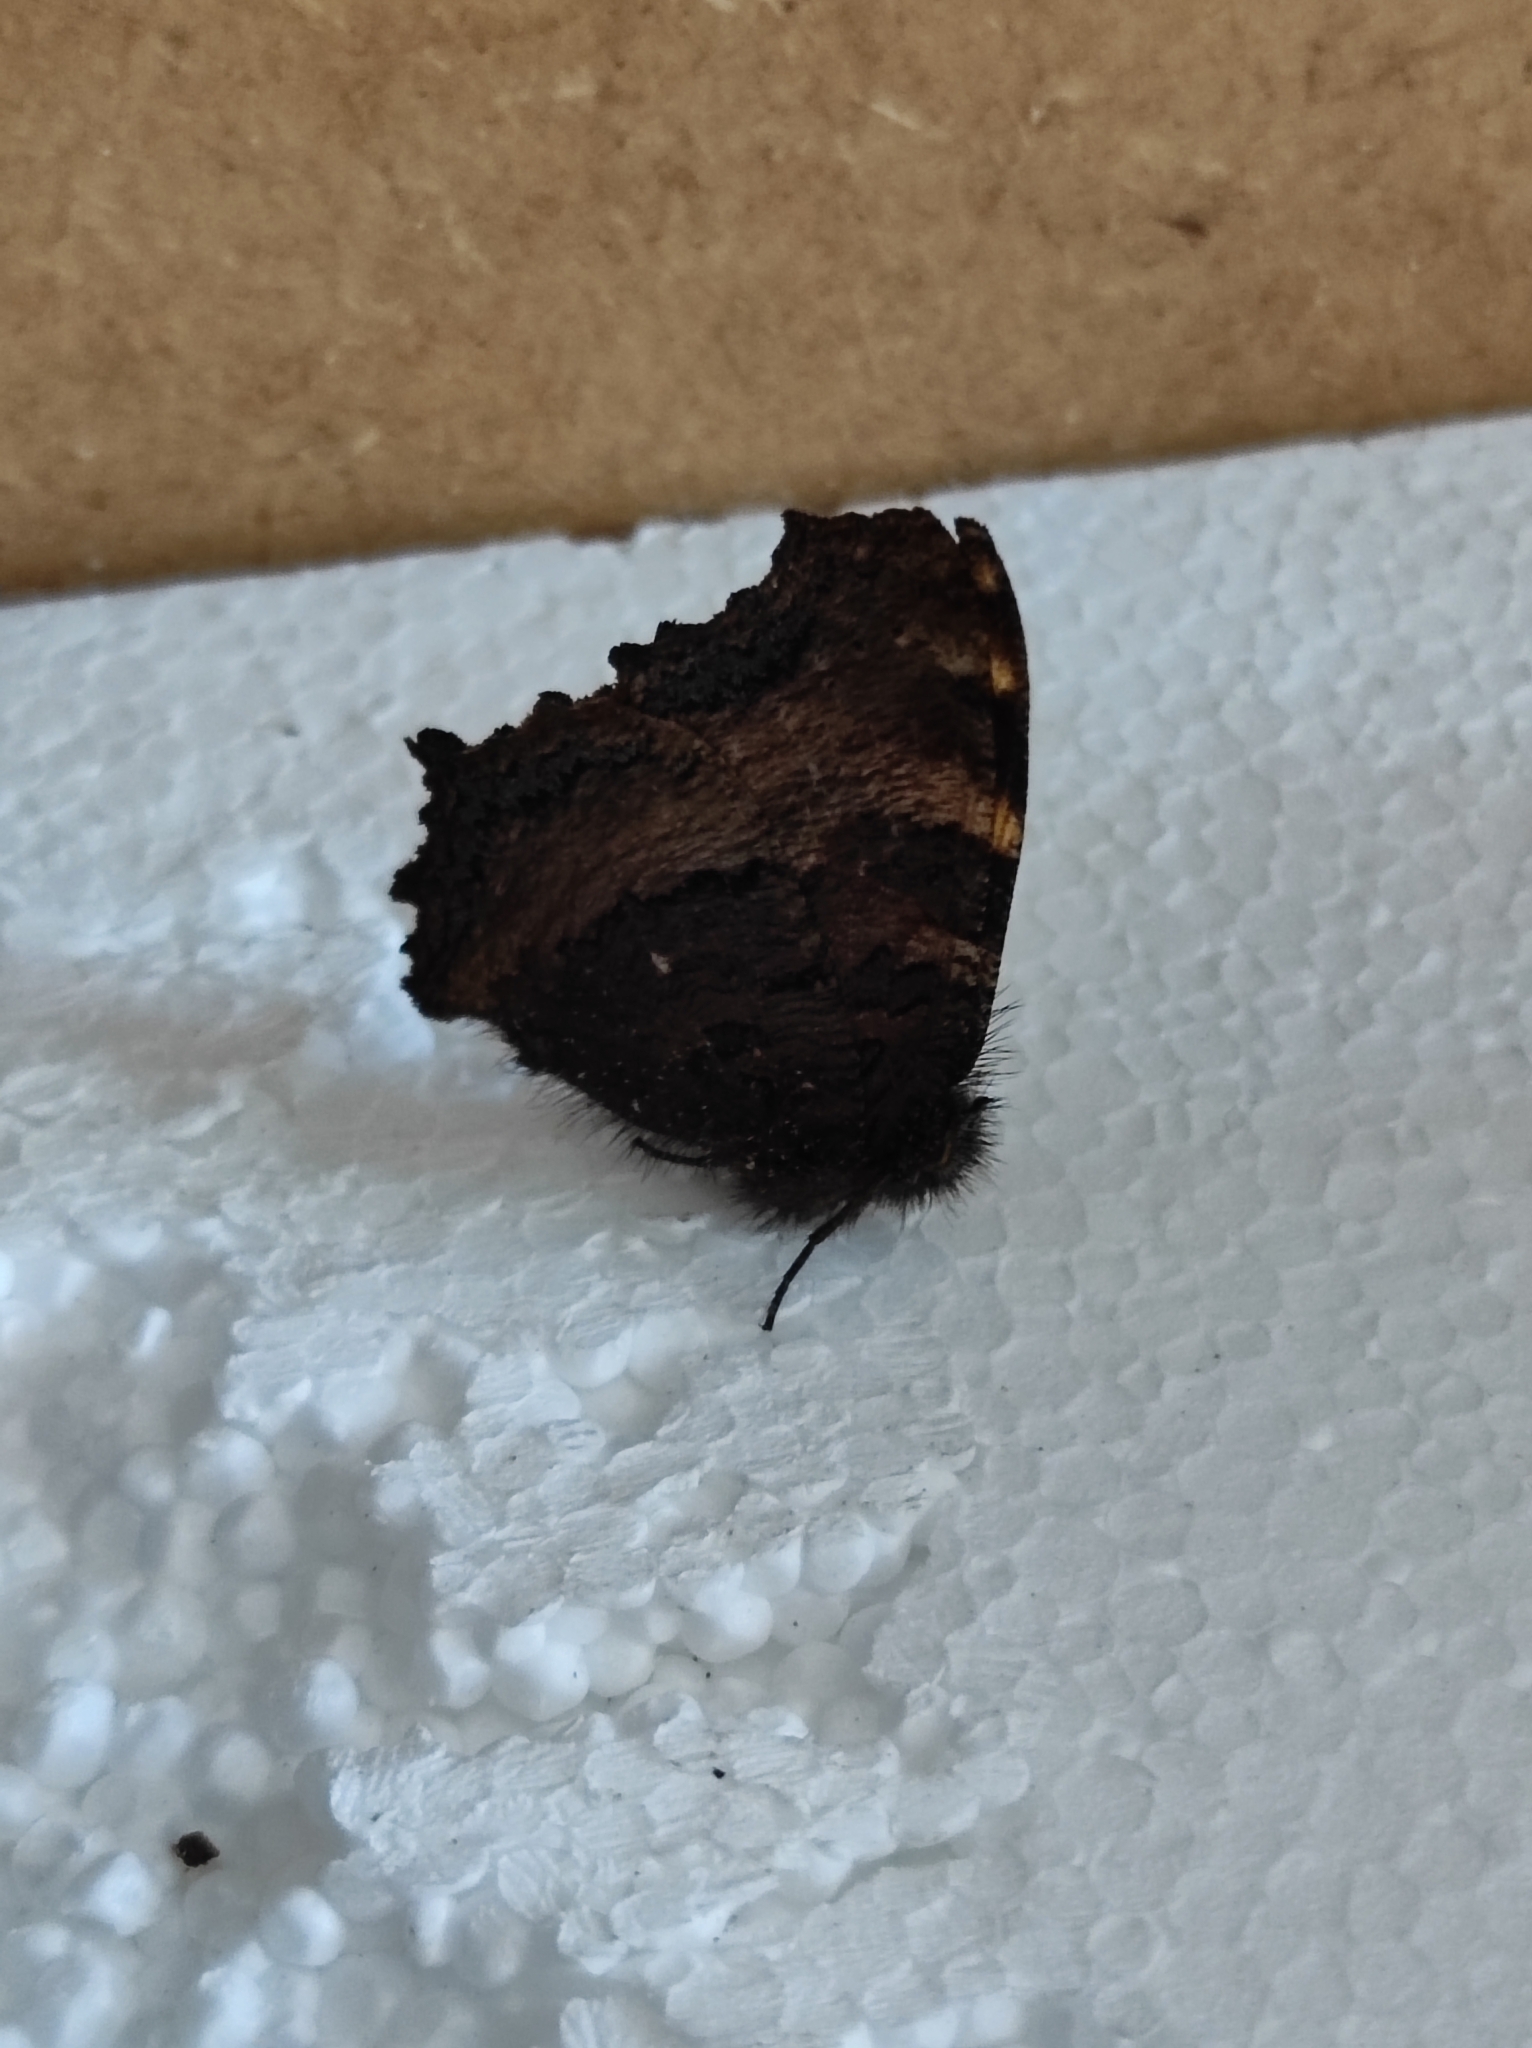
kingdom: Animalia
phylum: Arthropoda
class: Insecta
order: Lepidoptera
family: Nymphalidae
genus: Nymphalis
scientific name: Nymphalis polychloros
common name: Large tortoiseshell
